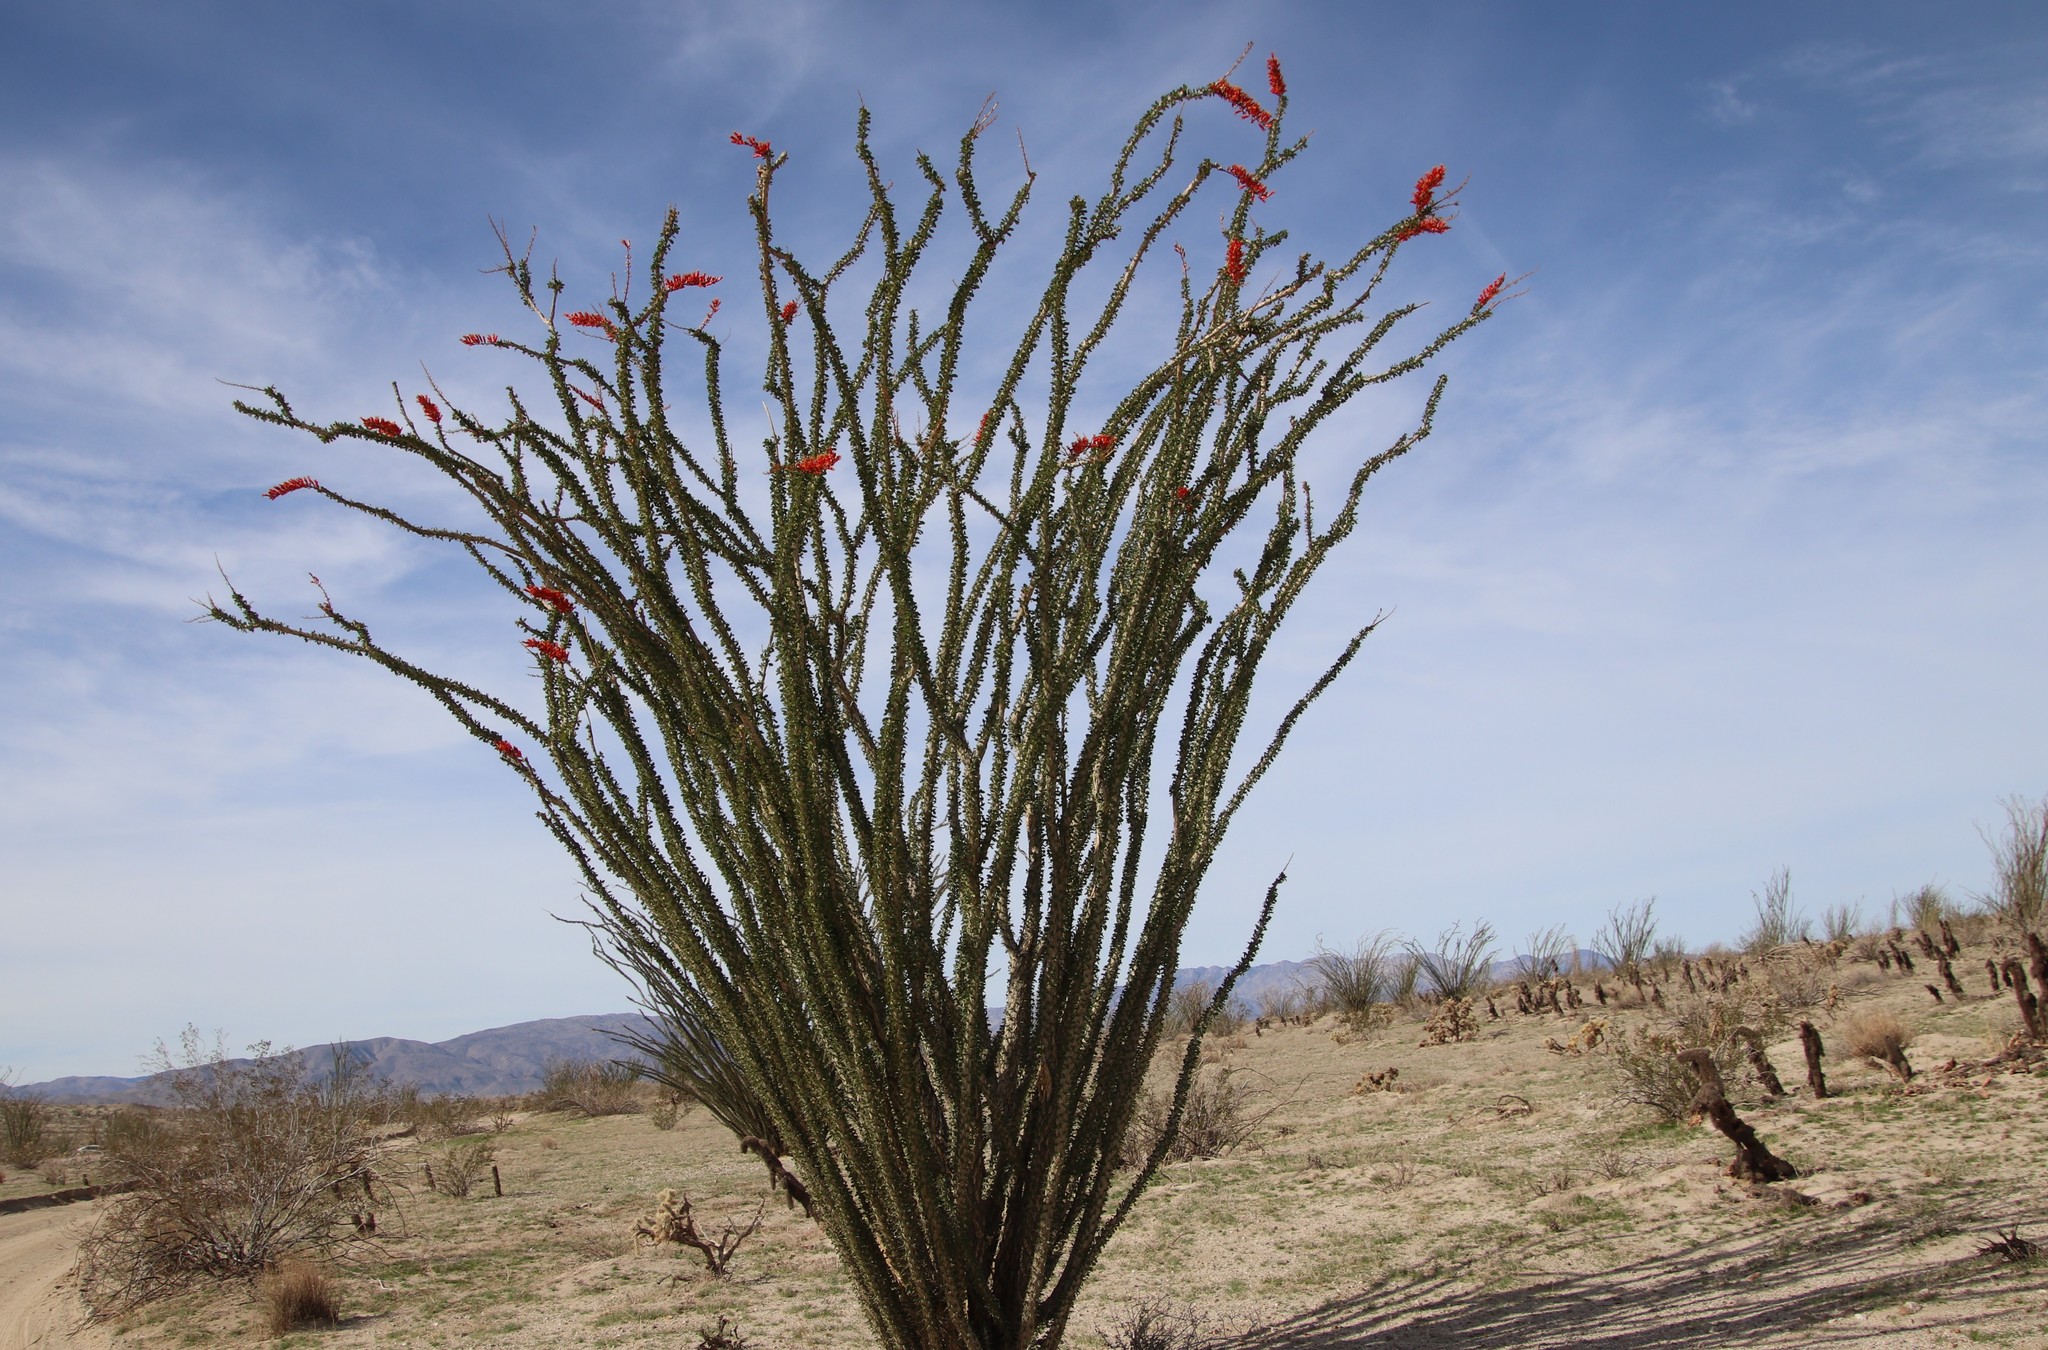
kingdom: Plantae
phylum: Tracheophyta
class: Magnoliopsida
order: Ericales
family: Fouquieriaceae
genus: Fouquieria
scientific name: Fouquieria splendens
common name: Vine-cactus
